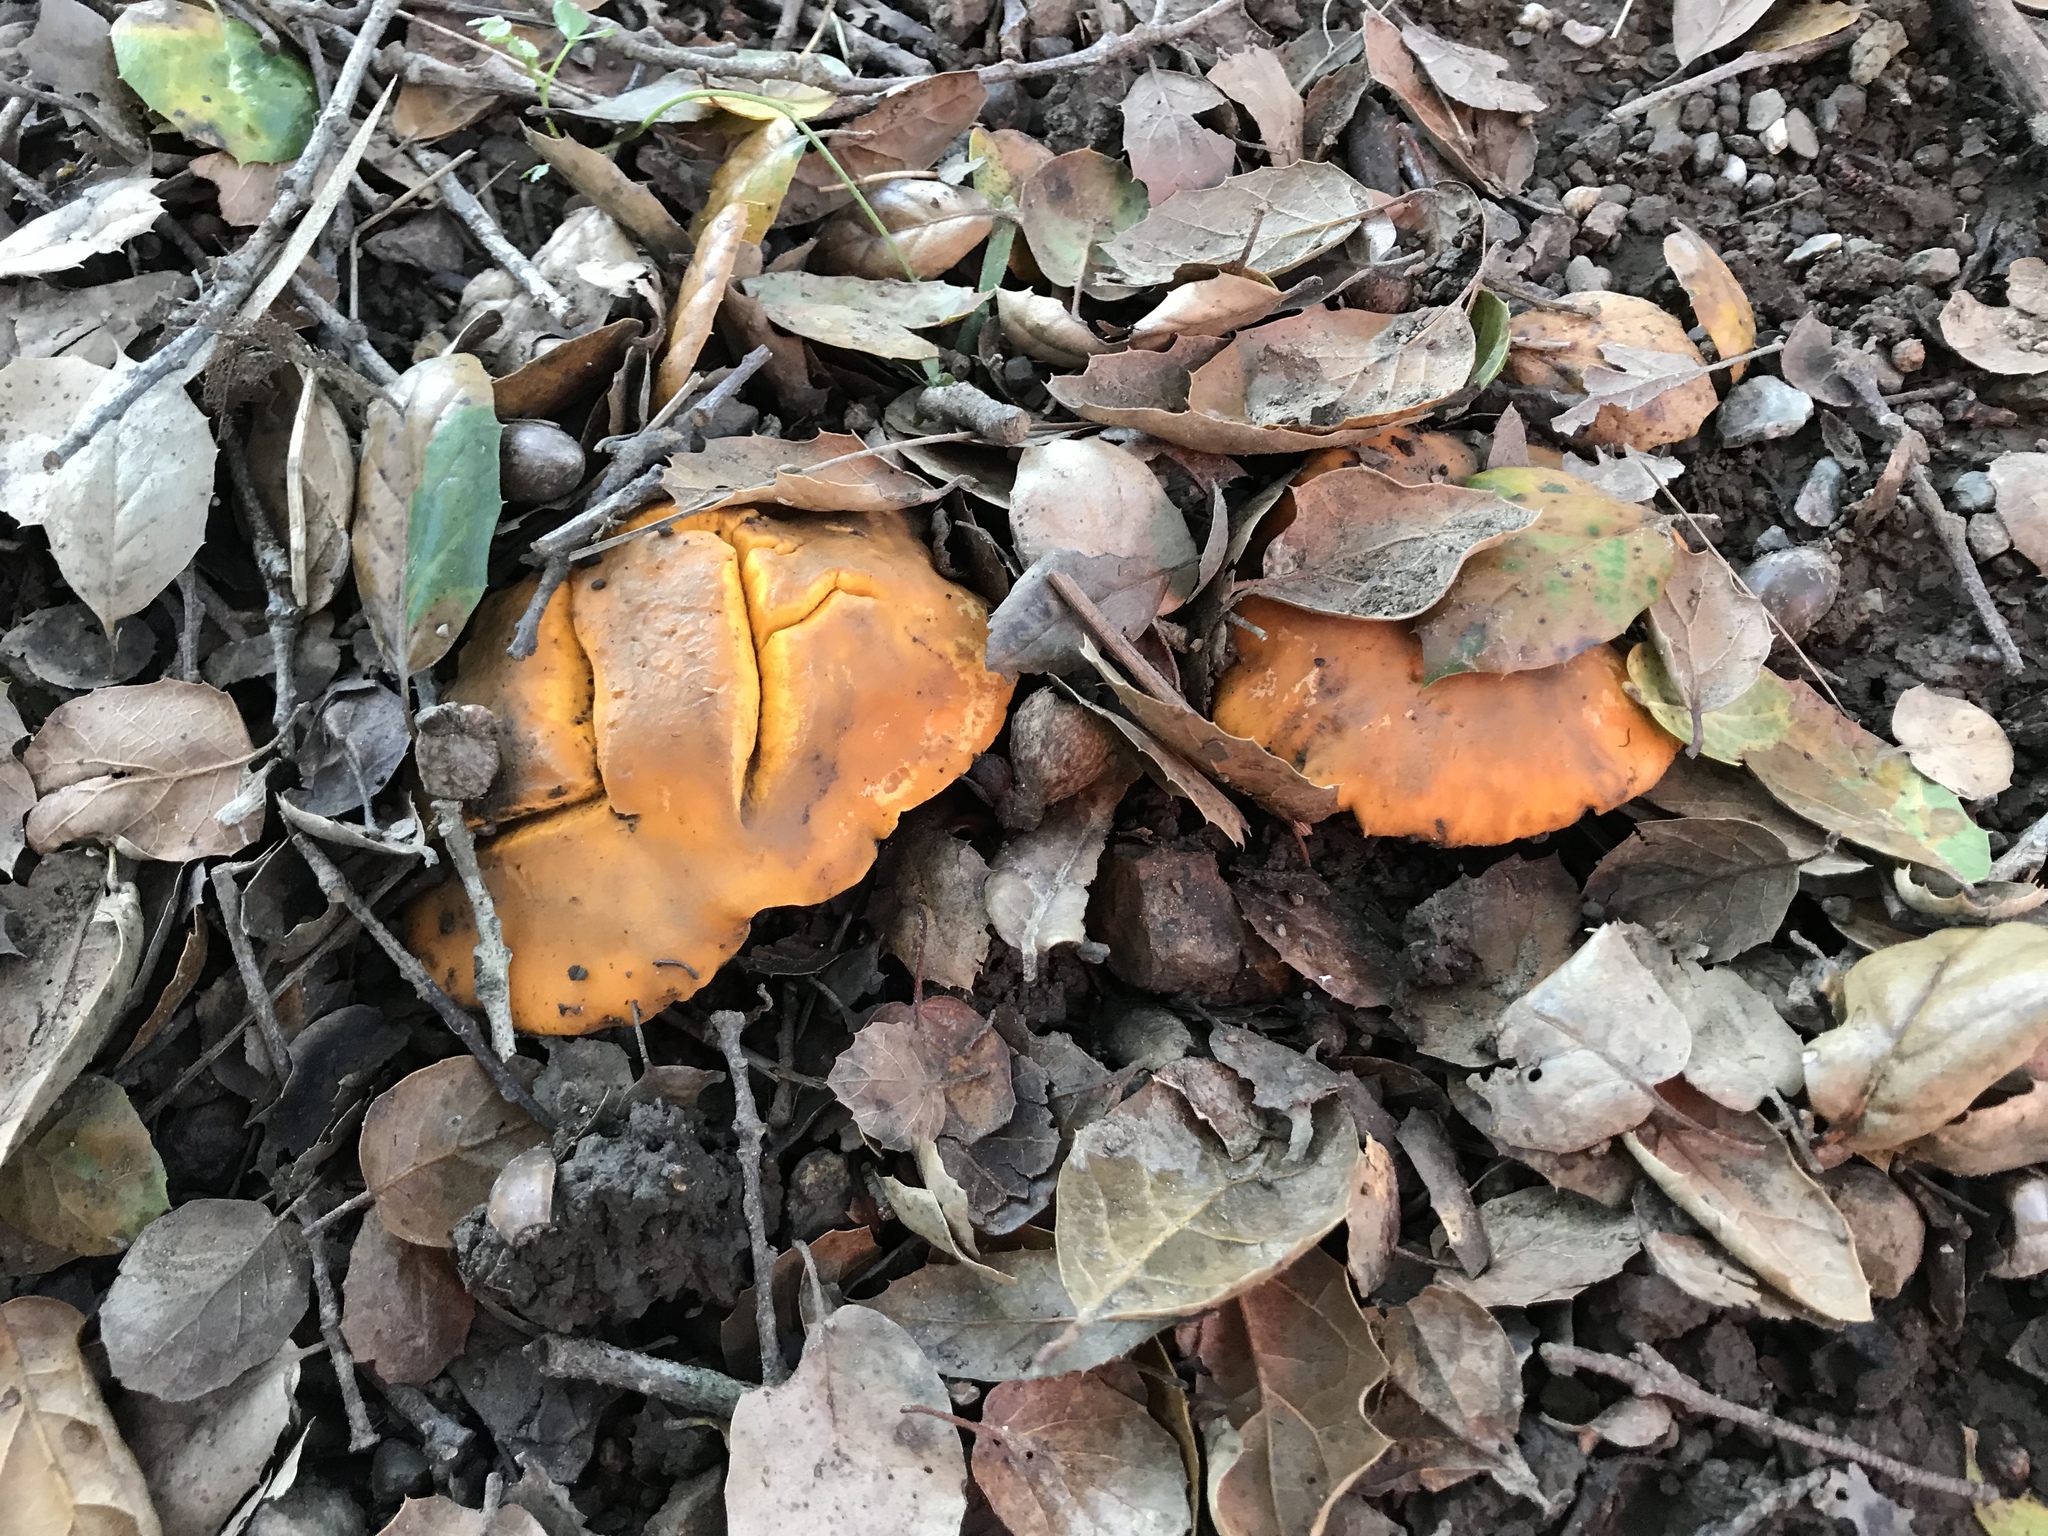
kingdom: Fungi
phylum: Basidiomycota
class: Agaricomycetes
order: Cantharellales
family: Hydnaceae
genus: Cantharellus
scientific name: Cantharellus californicus
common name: California golden chanterelle
